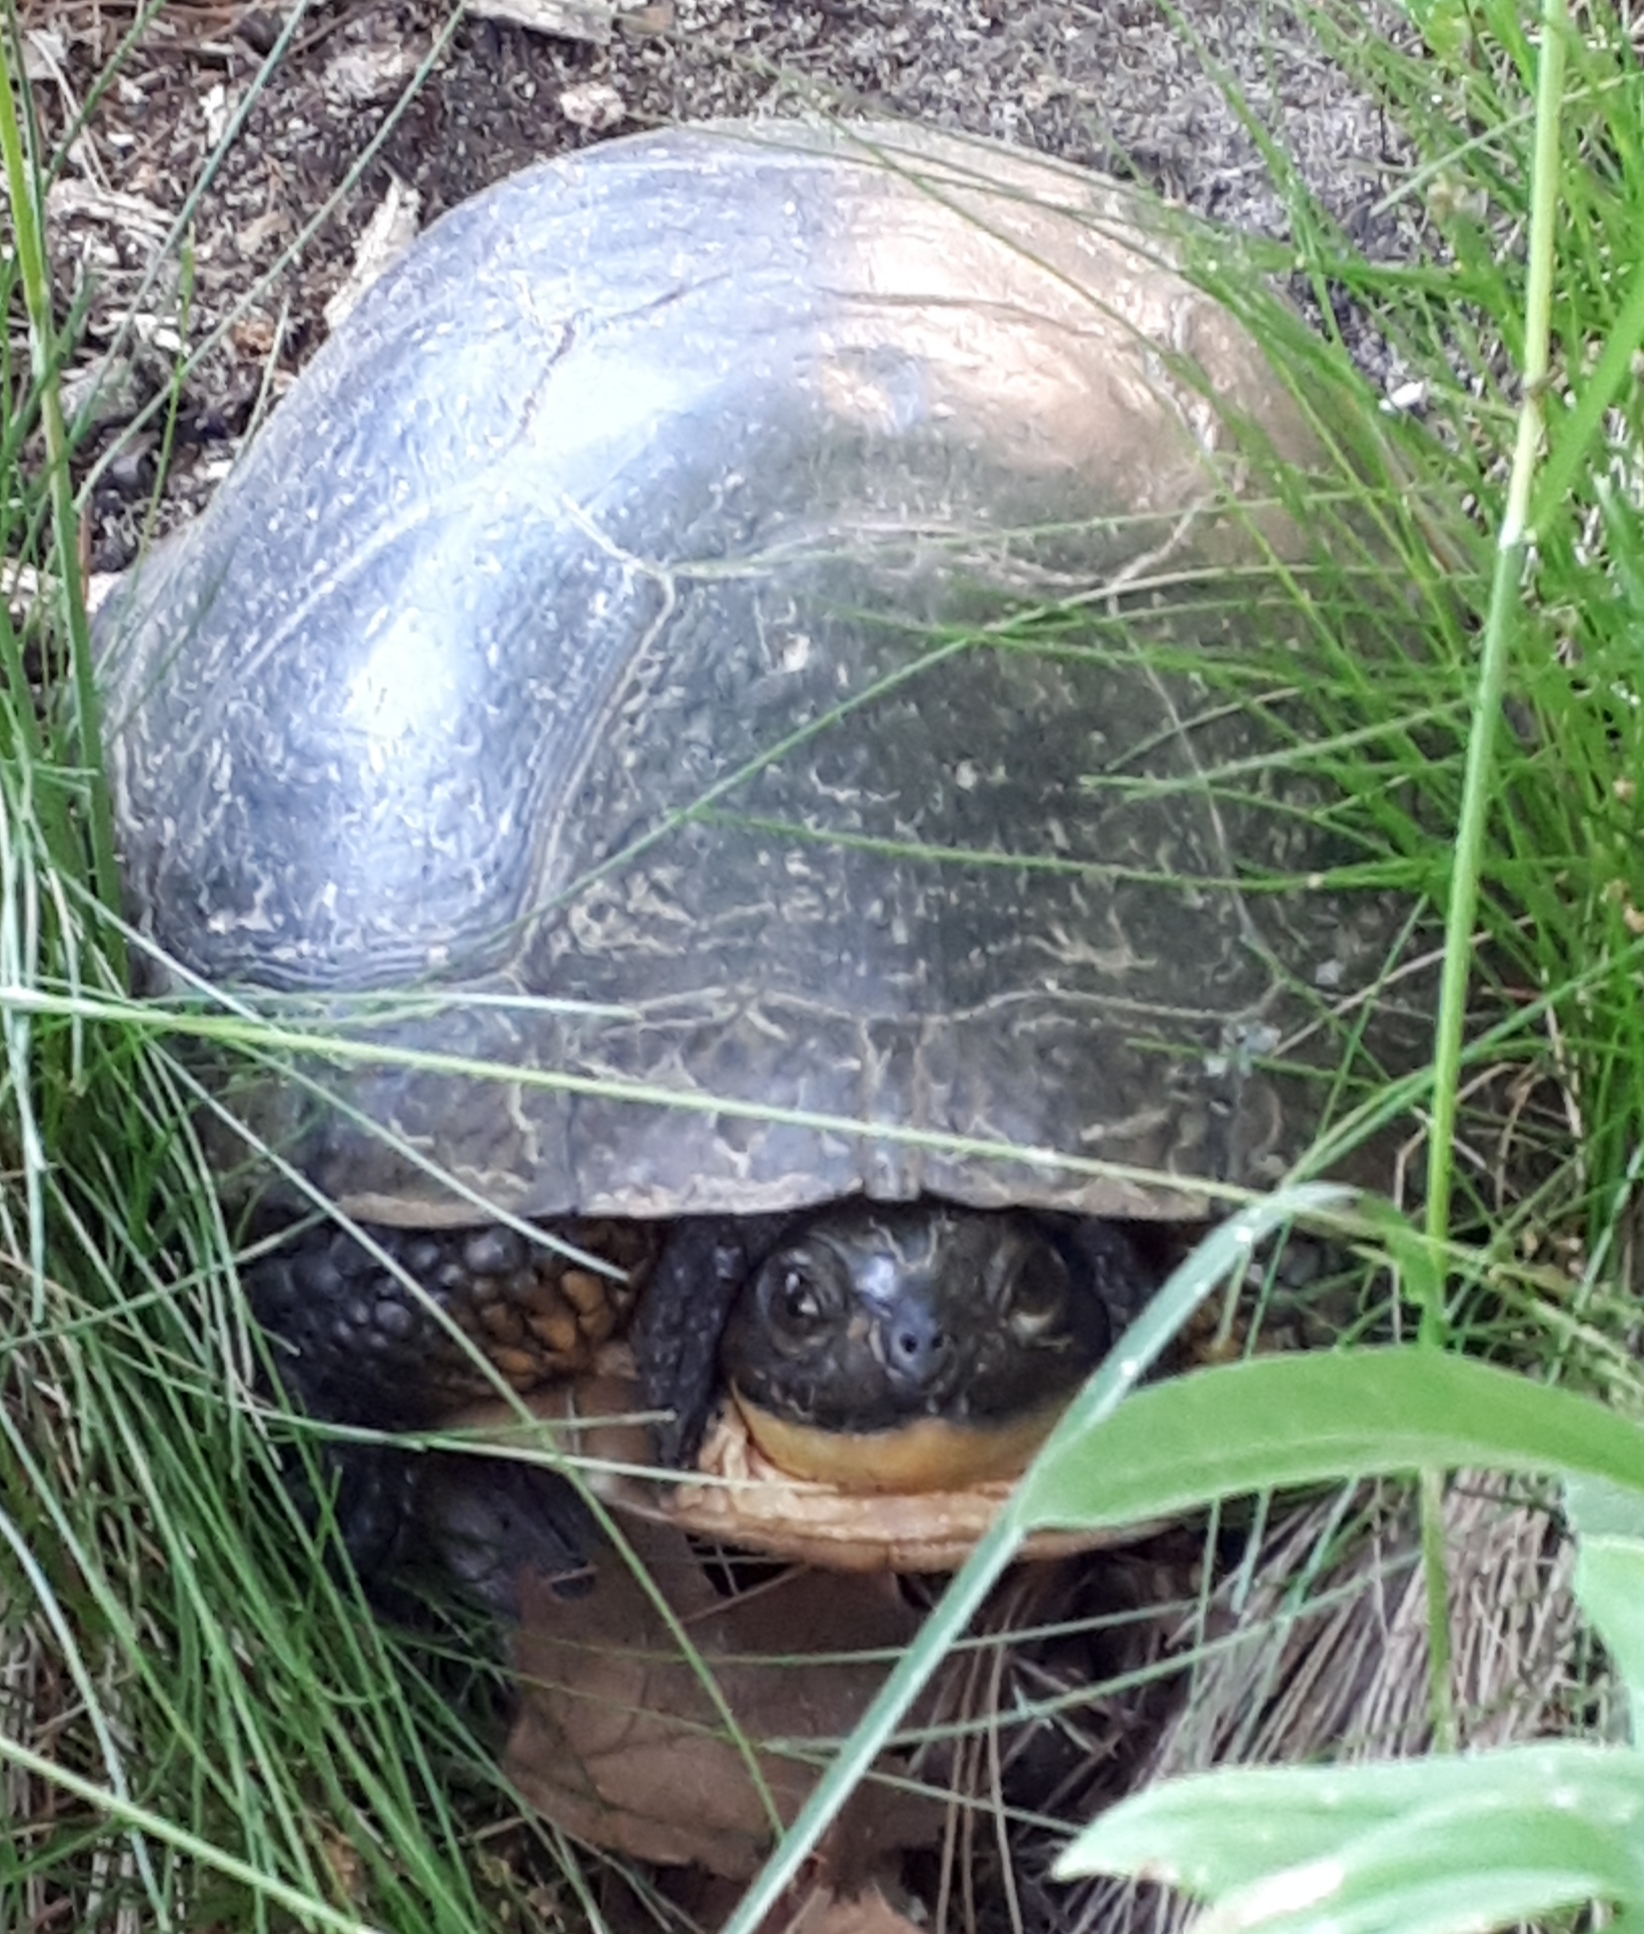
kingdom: Animalia
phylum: Chordata
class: Testudines
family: Emydidae
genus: Emys
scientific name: Emys blandingii
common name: Blanding's turtle
